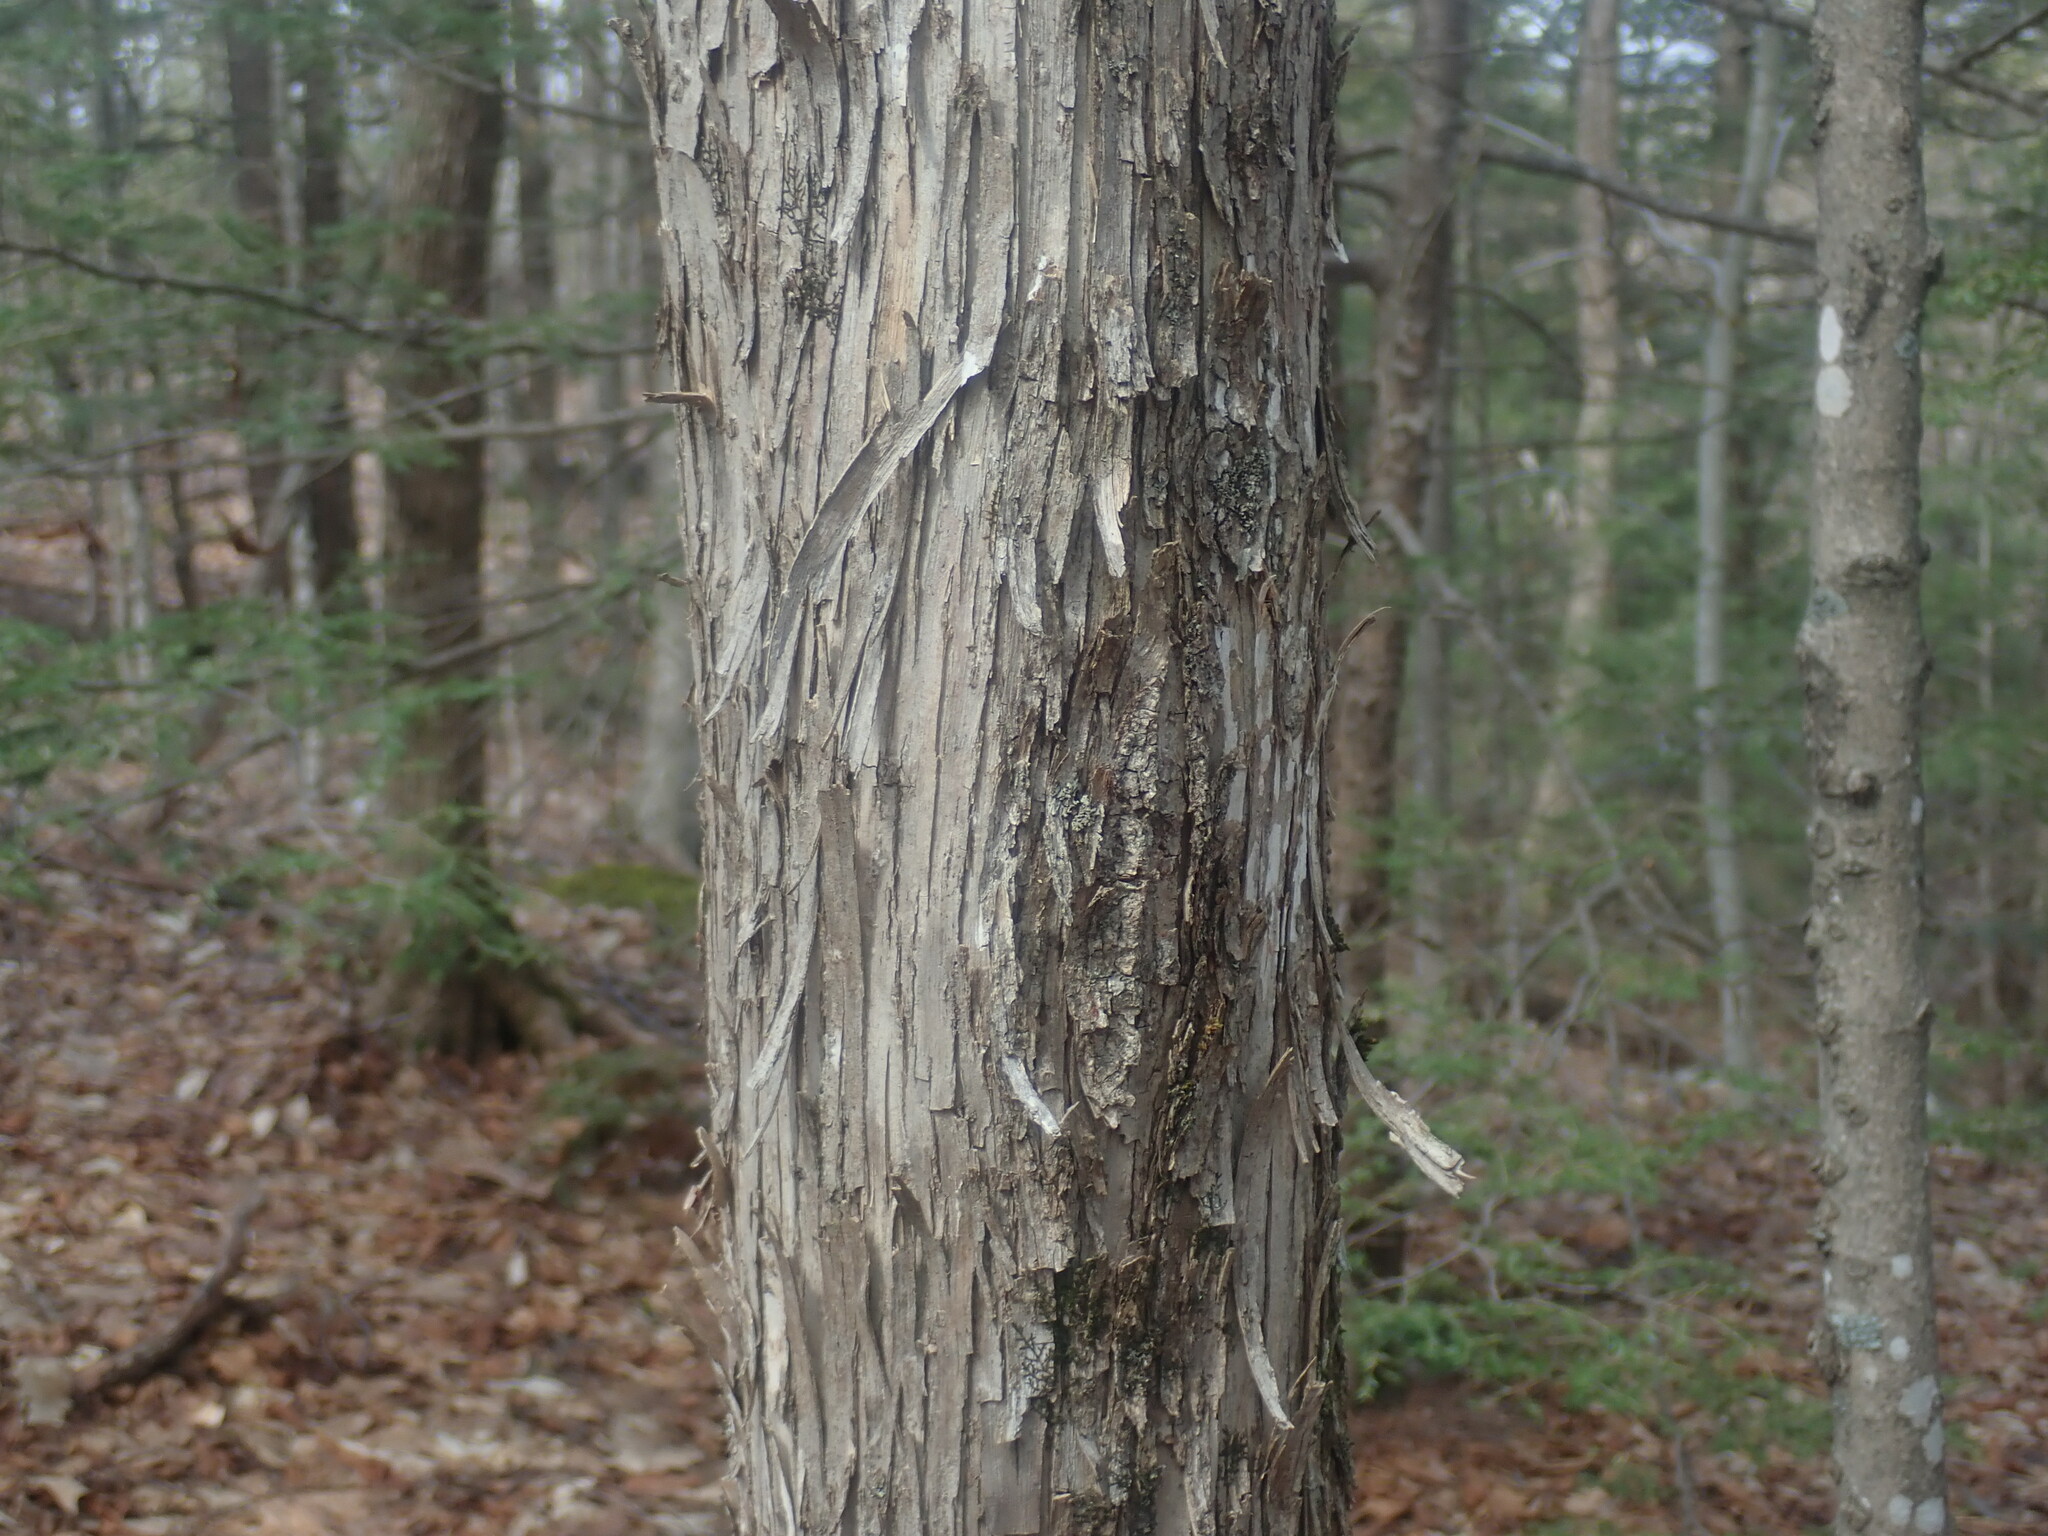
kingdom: Plantae
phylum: Tracheophyta
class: Magnoliopsida
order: Fagales
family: Betulaceae
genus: Ostrya
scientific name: Ostrya virginiana
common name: Ironwood
